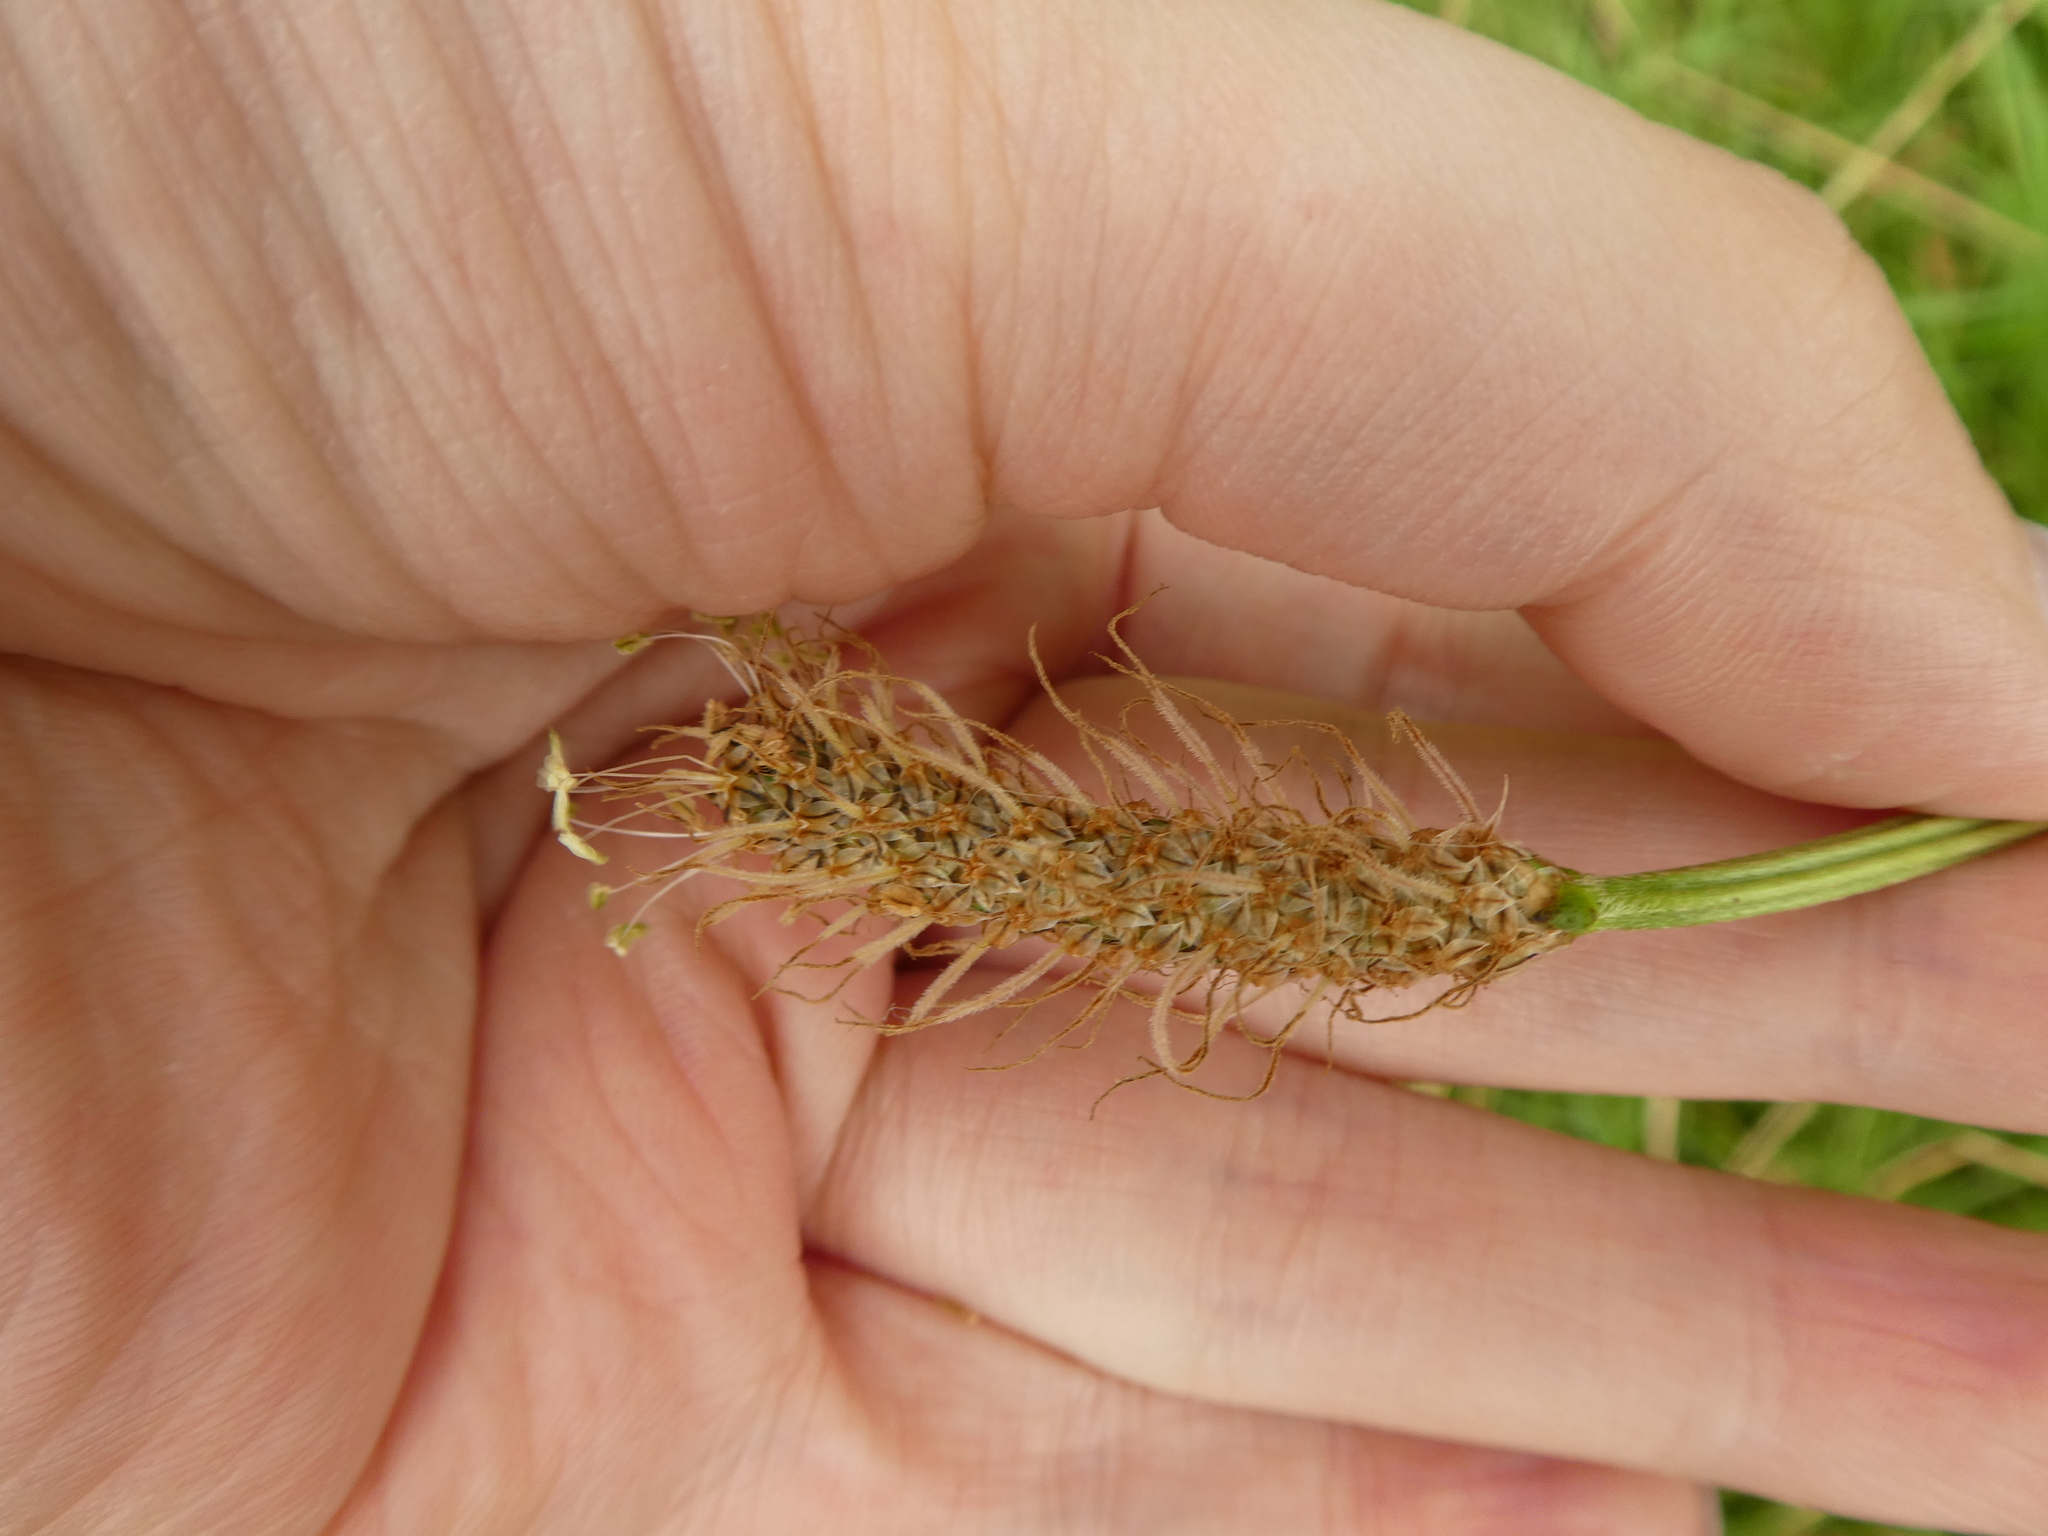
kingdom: Plantae
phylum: Tracheophyta
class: Magnoliopsida
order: Lamiales
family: Plantaginaceae
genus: Plantago
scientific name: Plantago lanceolata
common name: Ribwort plantain
